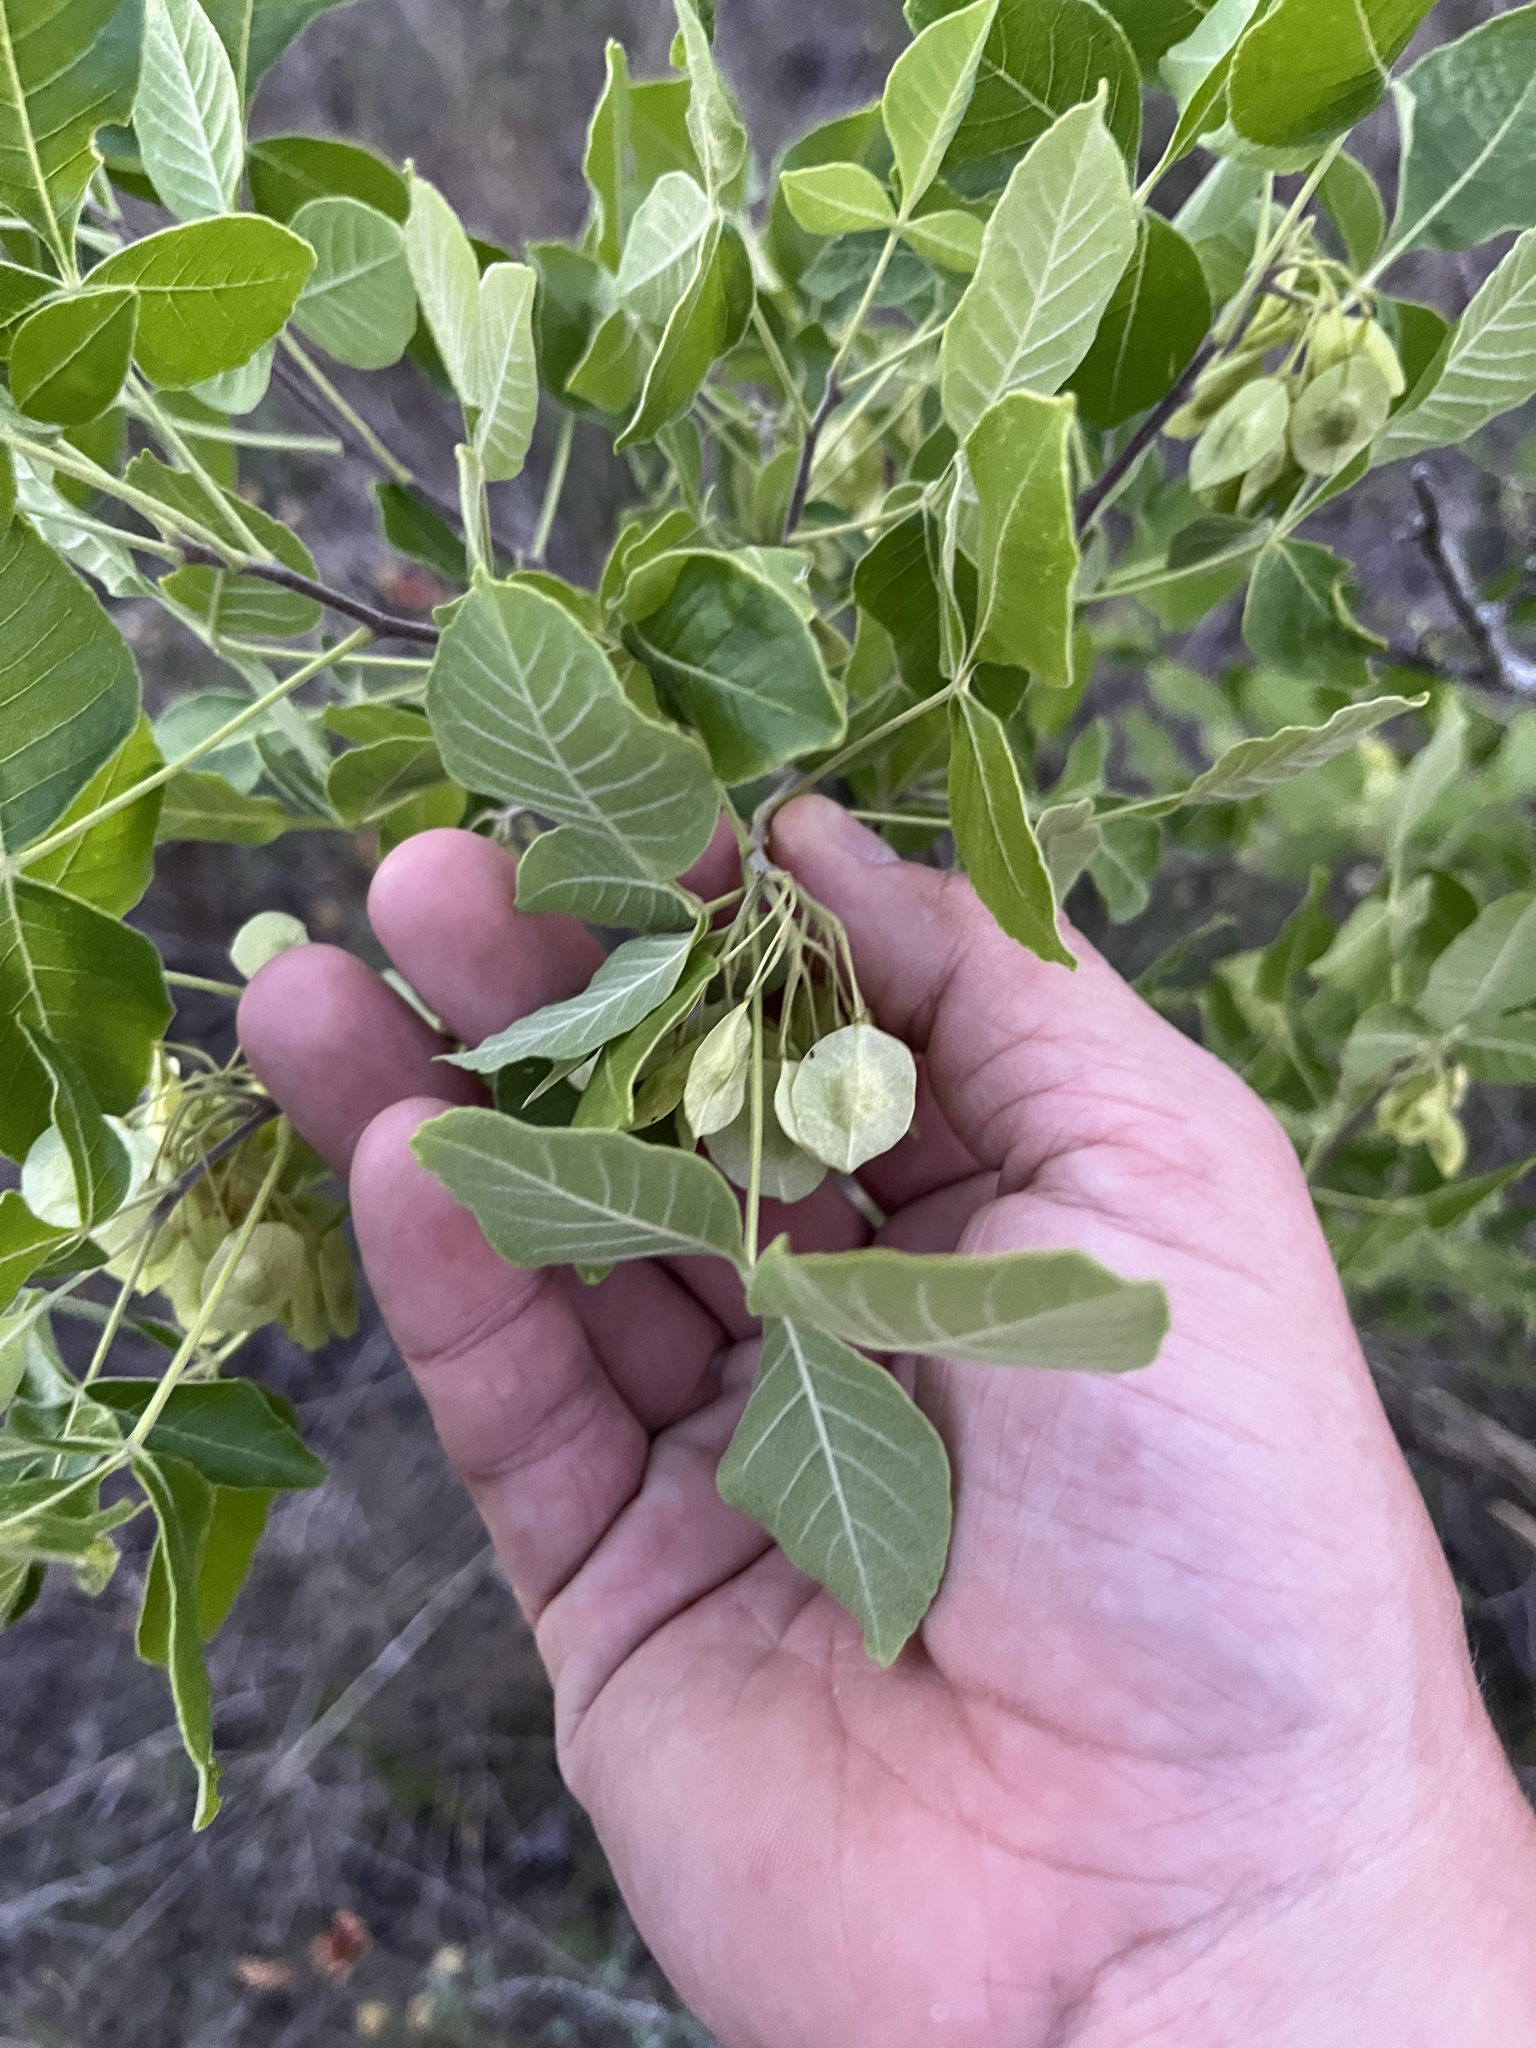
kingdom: Plantae
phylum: Tracheophyta
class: Magnoliopsida
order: Sapindales
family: Rutaceae
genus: Ptelea
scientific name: Ptelea trifoliata
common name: Common hop-tree
